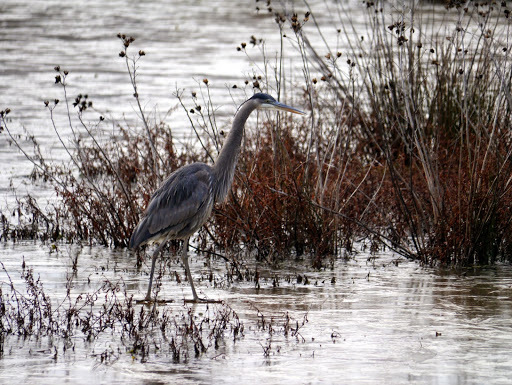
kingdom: Animalia
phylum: Chordata
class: Aves
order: Pelecaniformes
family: Ardeidae
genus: Ardea
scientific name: Ardea herodias
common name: Great blue heron
